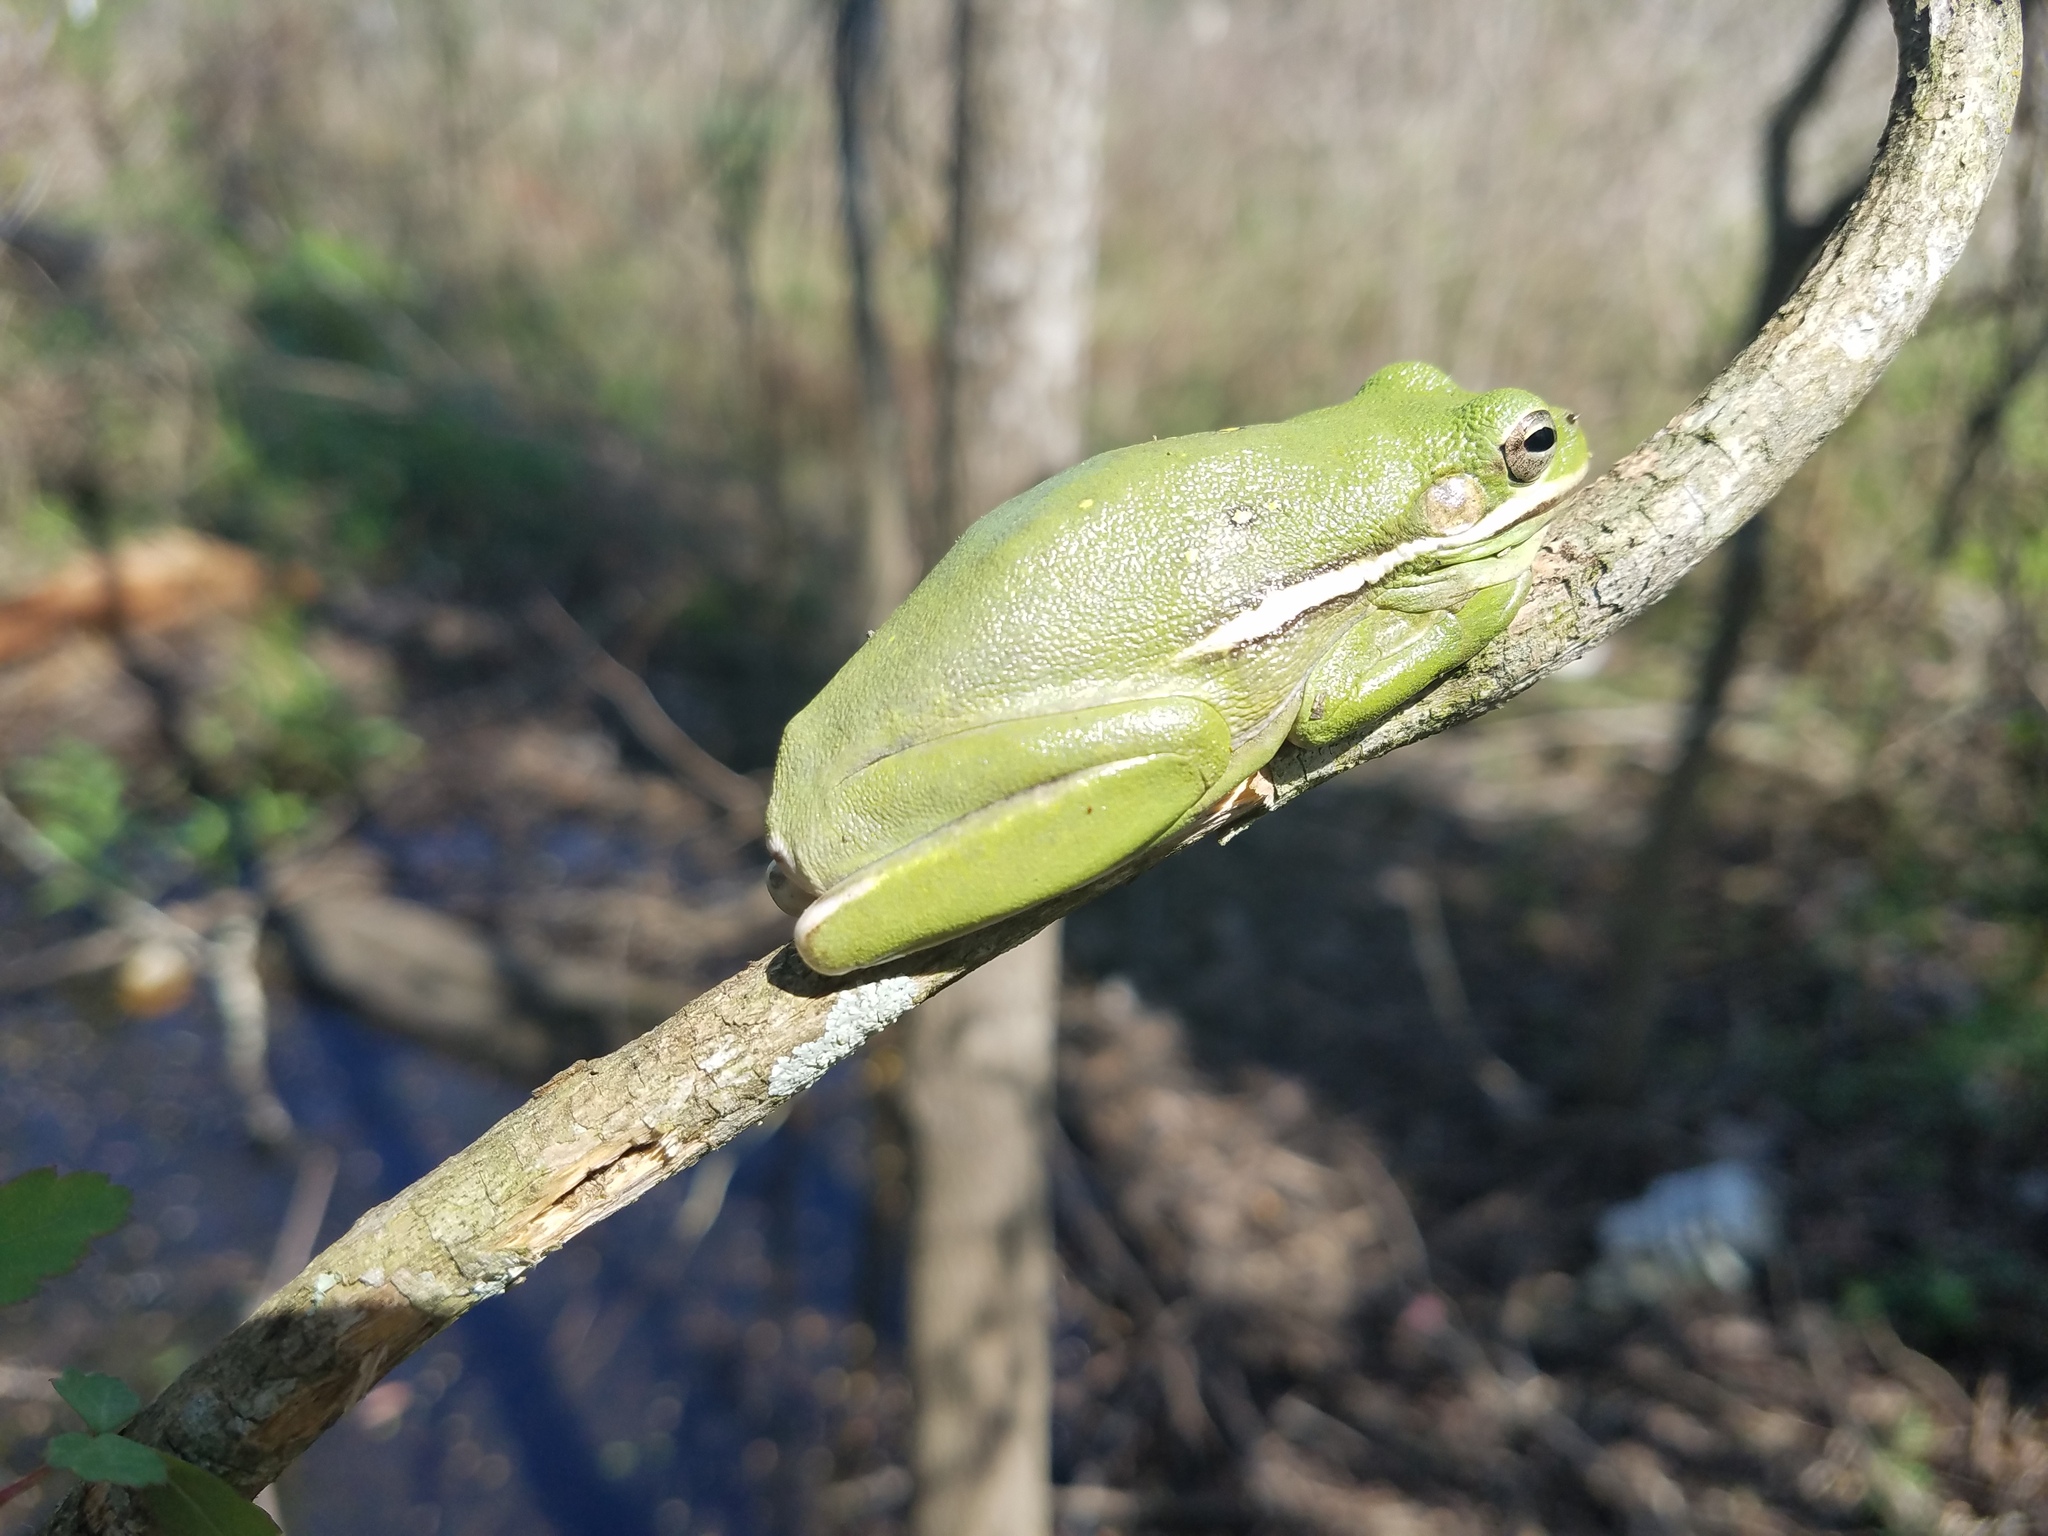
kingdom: Animalia
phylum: Chordata
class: Amphibia
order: Anura
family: Hylidae
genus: Dryophytes
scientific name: Dryophytes cinereus
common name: Green treefrog
